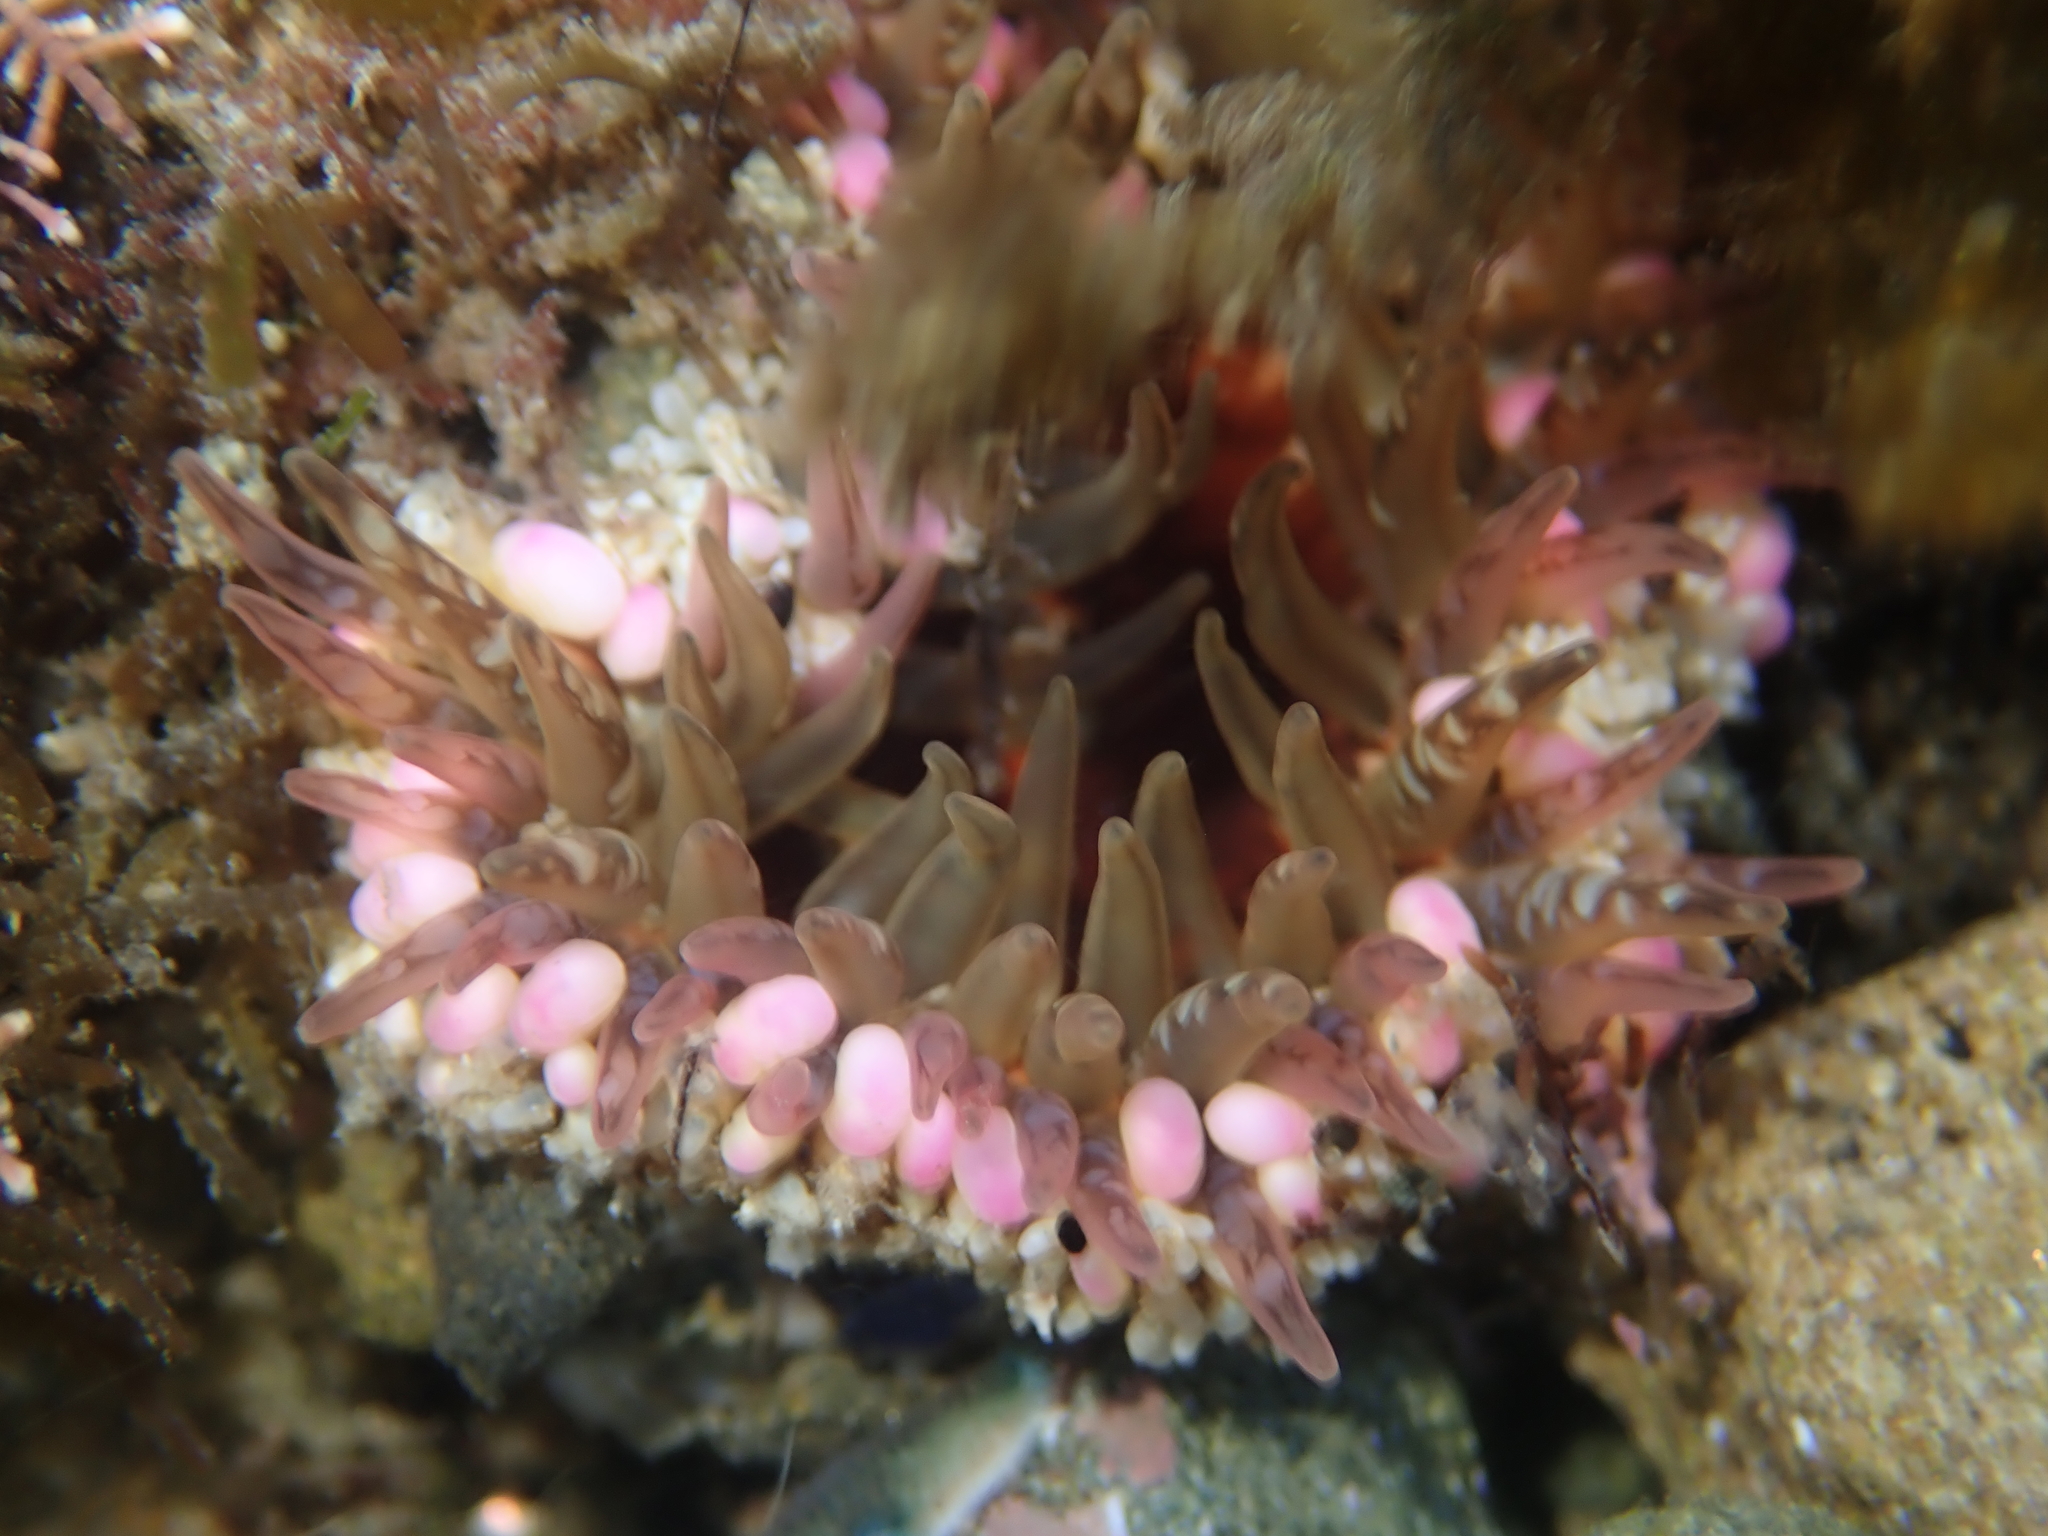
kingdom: Animalia
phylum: Cnidaria
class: Anthozoa
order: Actiniaria
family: Actiniidae
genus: Oulactis
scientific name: Oulactis muscosa
